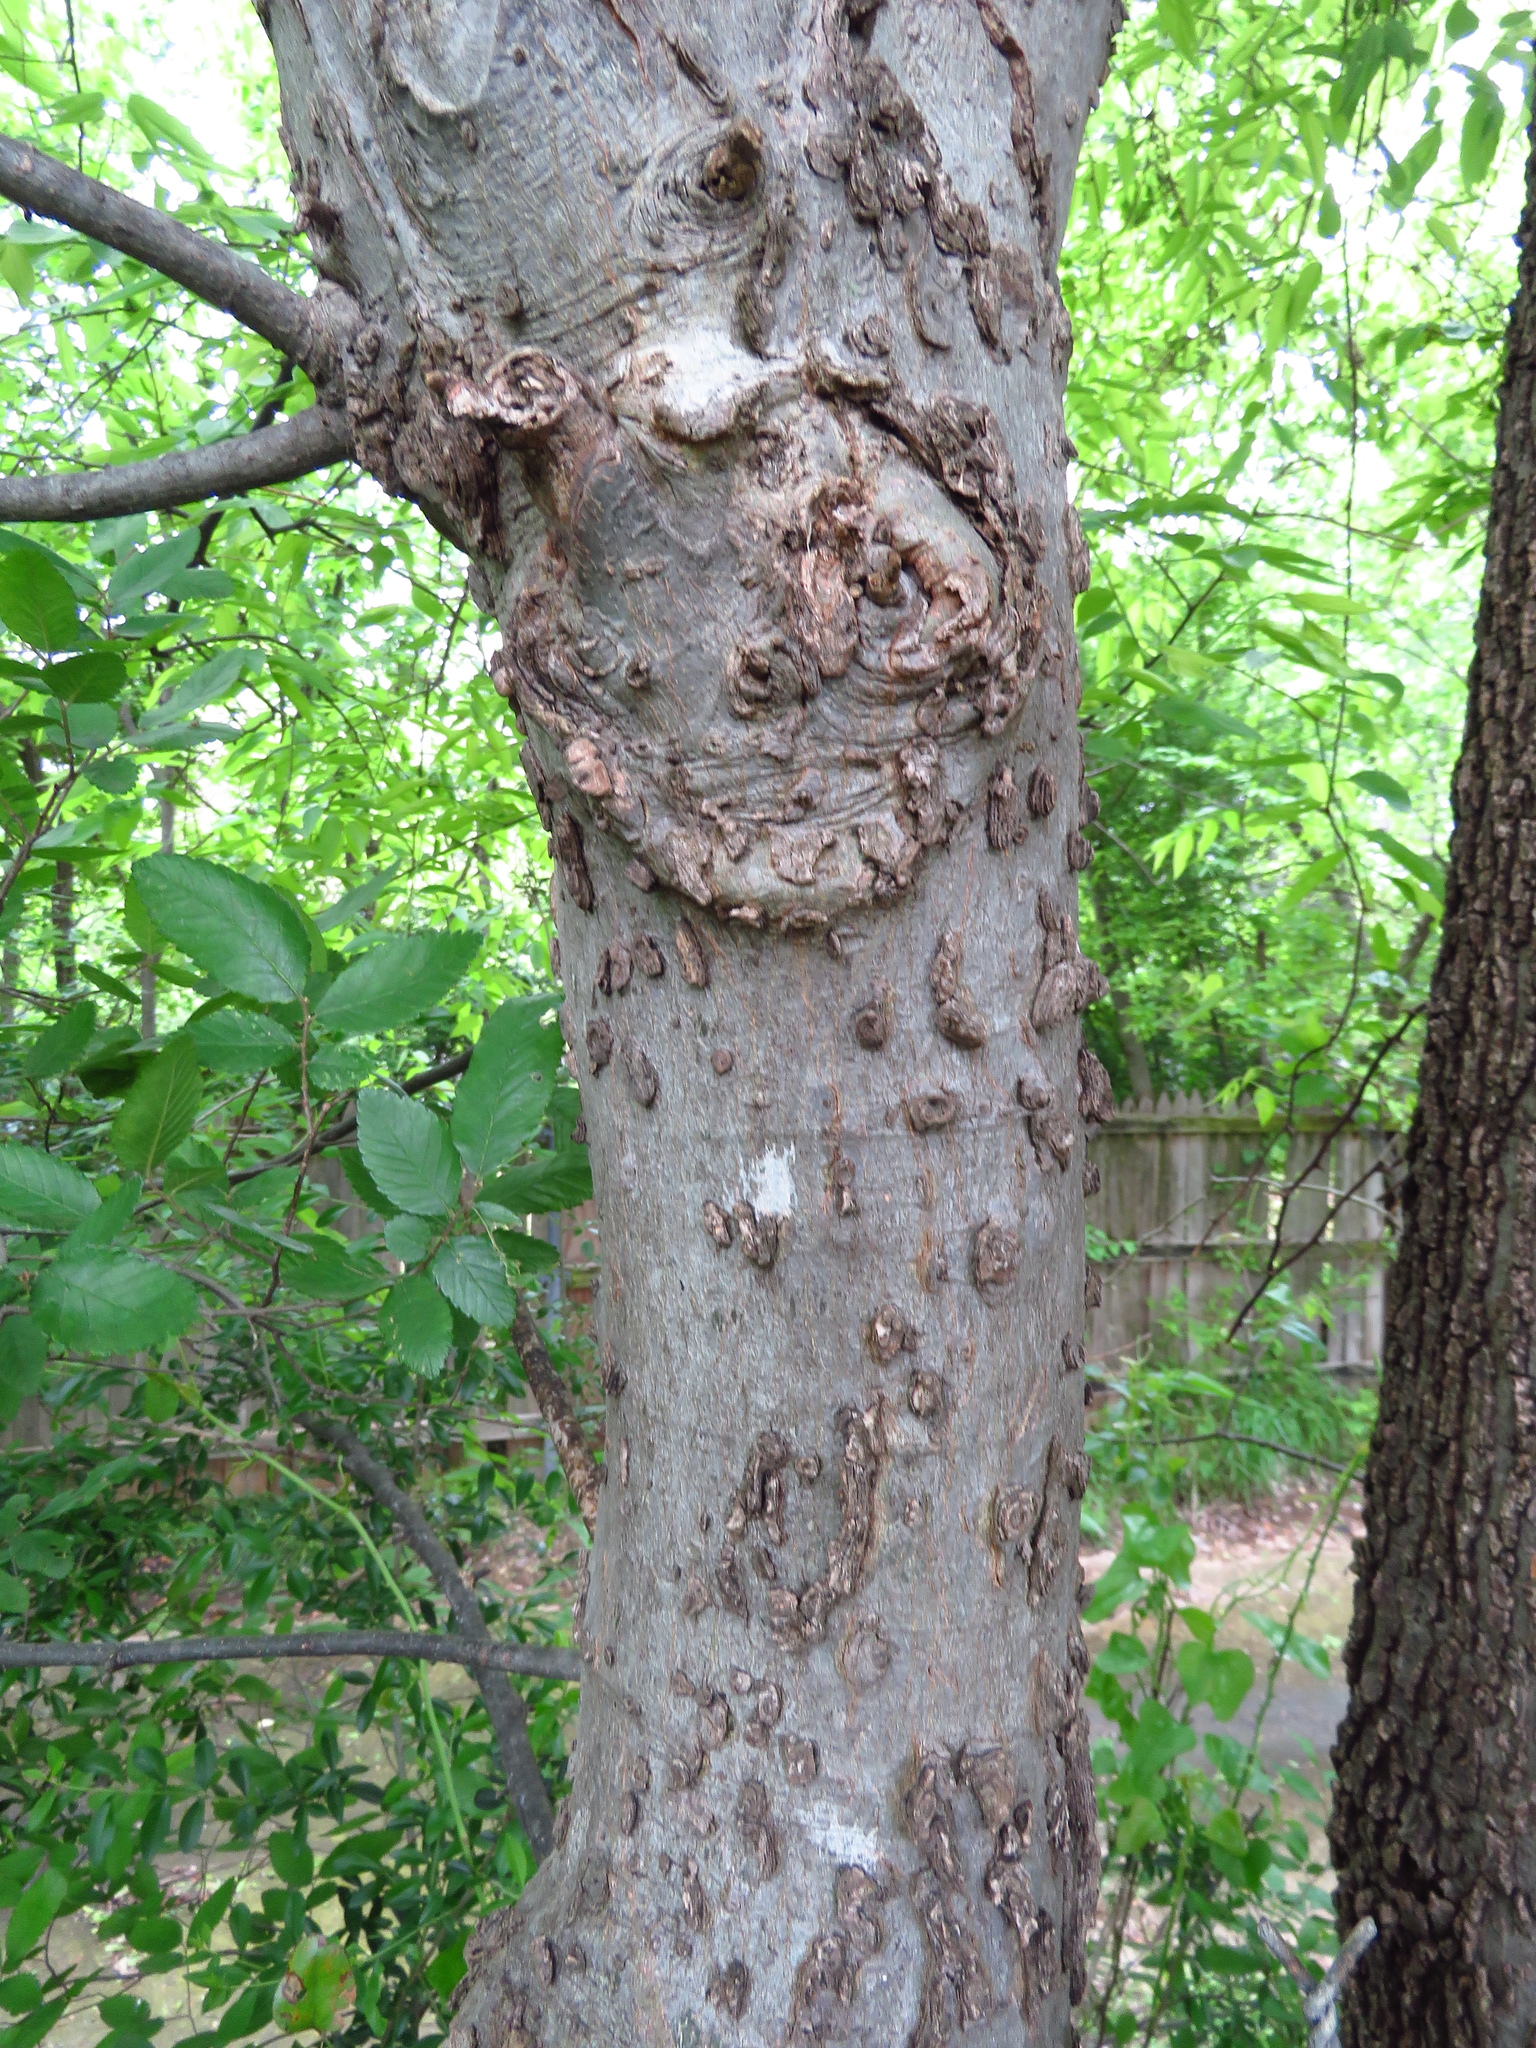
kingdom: Plantae
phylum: Tracheophyta
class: Magnoliopsida
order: Rosales
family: Cannabaceae
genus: Celtis
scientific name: Celtis laevigata
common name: Sugarberry
